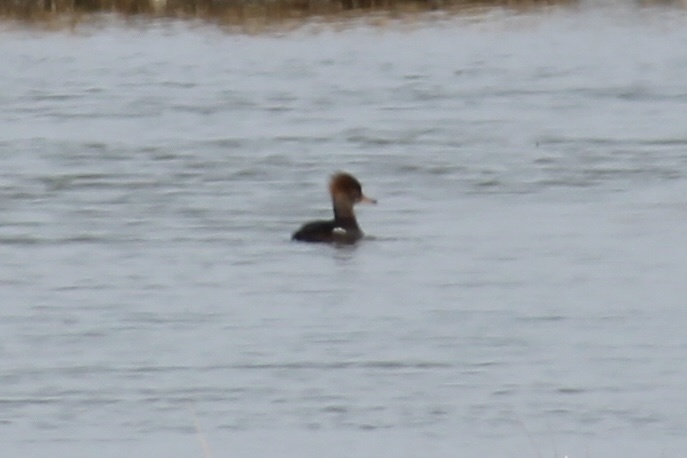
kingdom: Animalia
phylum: Chordata
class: Aves
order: Anseriformes
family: Anatidae
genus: Lophodytes
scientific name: Lophodytes cucullatus
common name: Hooded merganser
